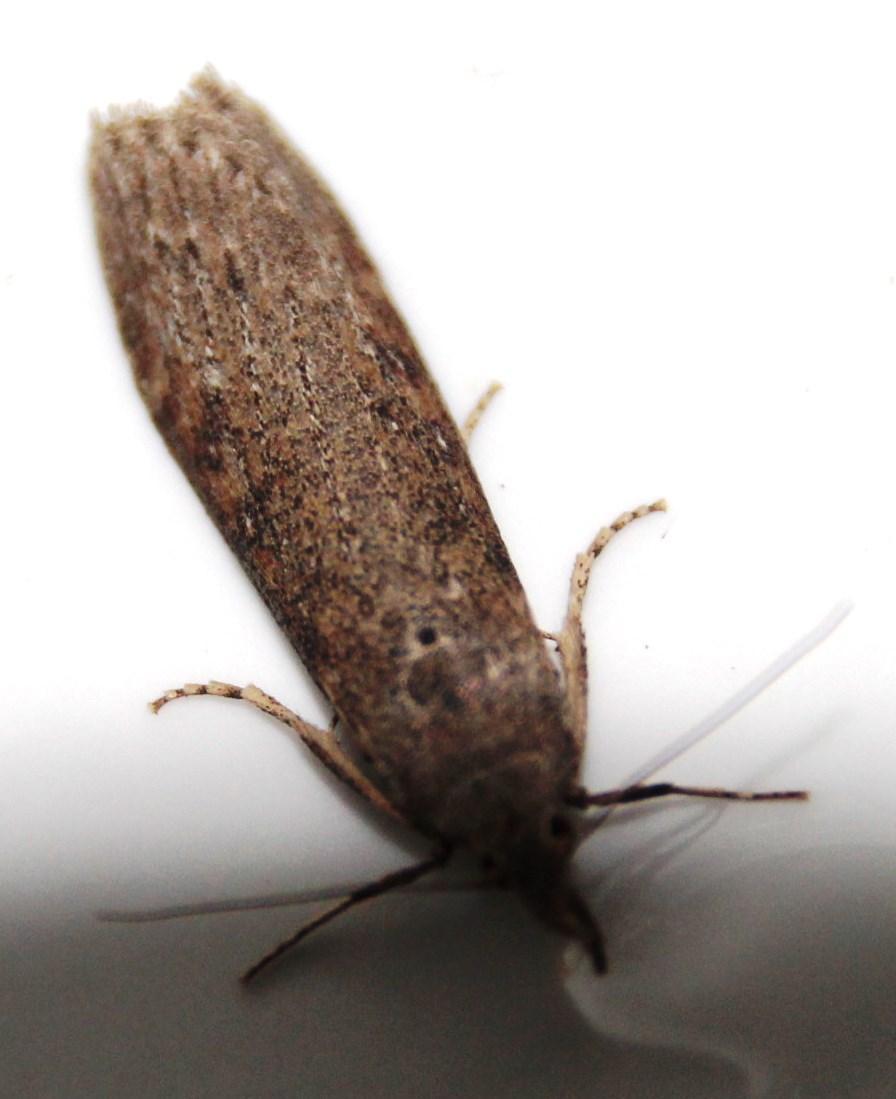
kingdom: Animalia
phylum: Arthropoda
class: Insecta
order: Lepidoptera
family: Pyralidae
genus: Lamoria
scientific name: Lamoria imbella
